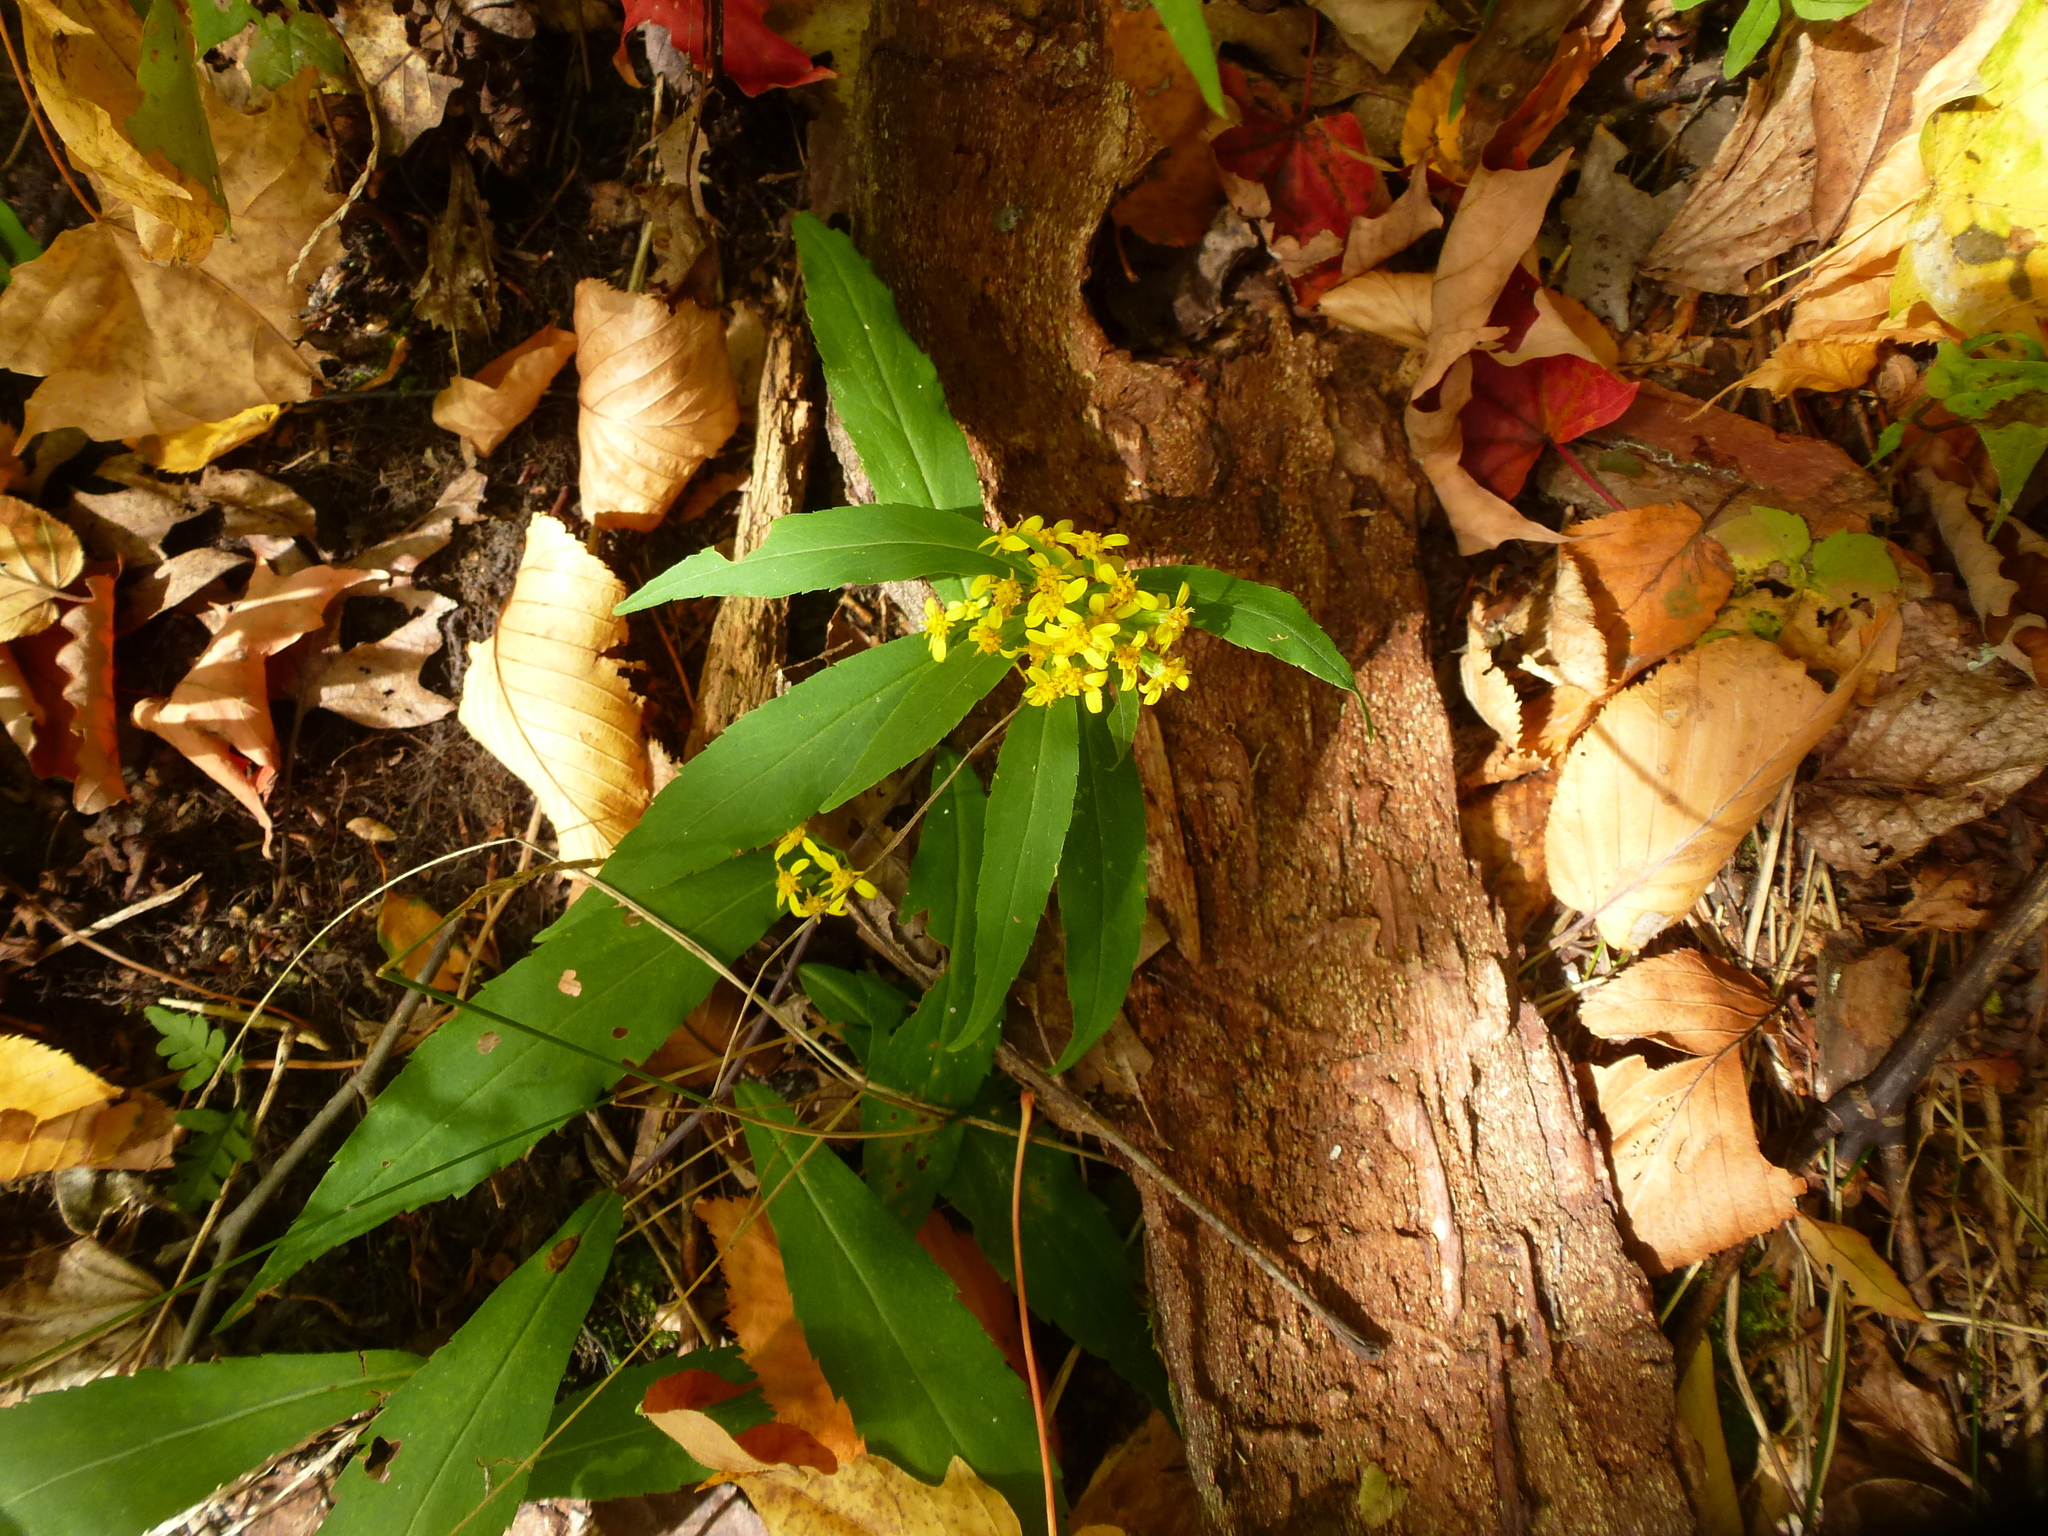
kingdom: Plantae
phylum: Tracheophyta
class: Magnoliopsida
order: Asterales
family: Asteraceae
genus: Solidago
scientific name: Solidago caesia
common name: Woodland goldenrod
